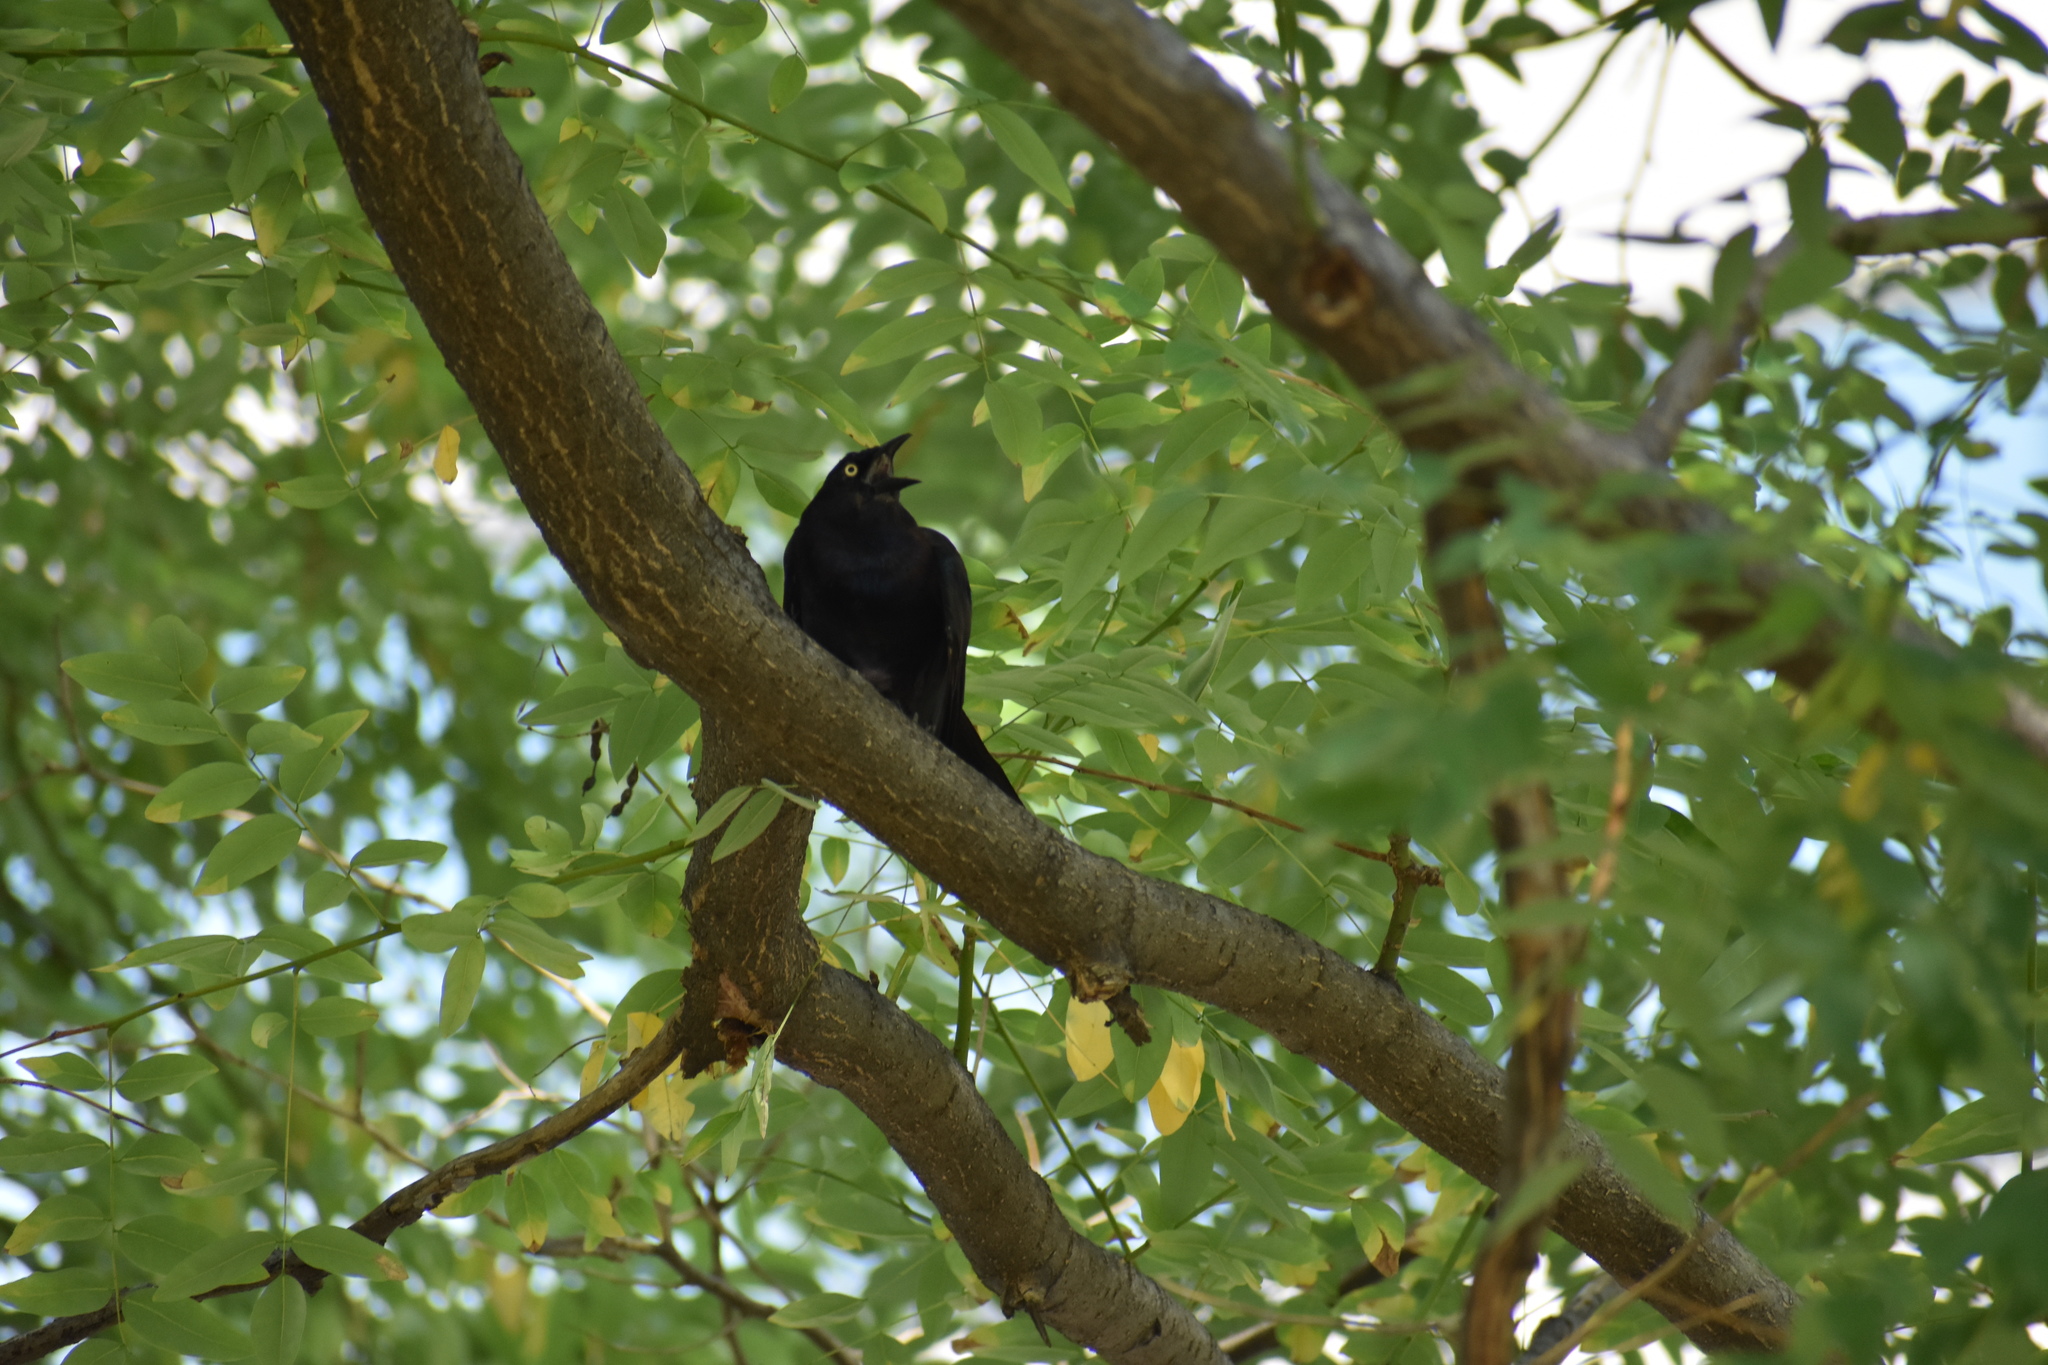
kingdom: Animalia
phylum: Chordata
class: Aves
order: Passeriformes
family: Icteridae
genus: Quiscalus
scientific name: Quiscalus quiscula
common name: Common grackle
